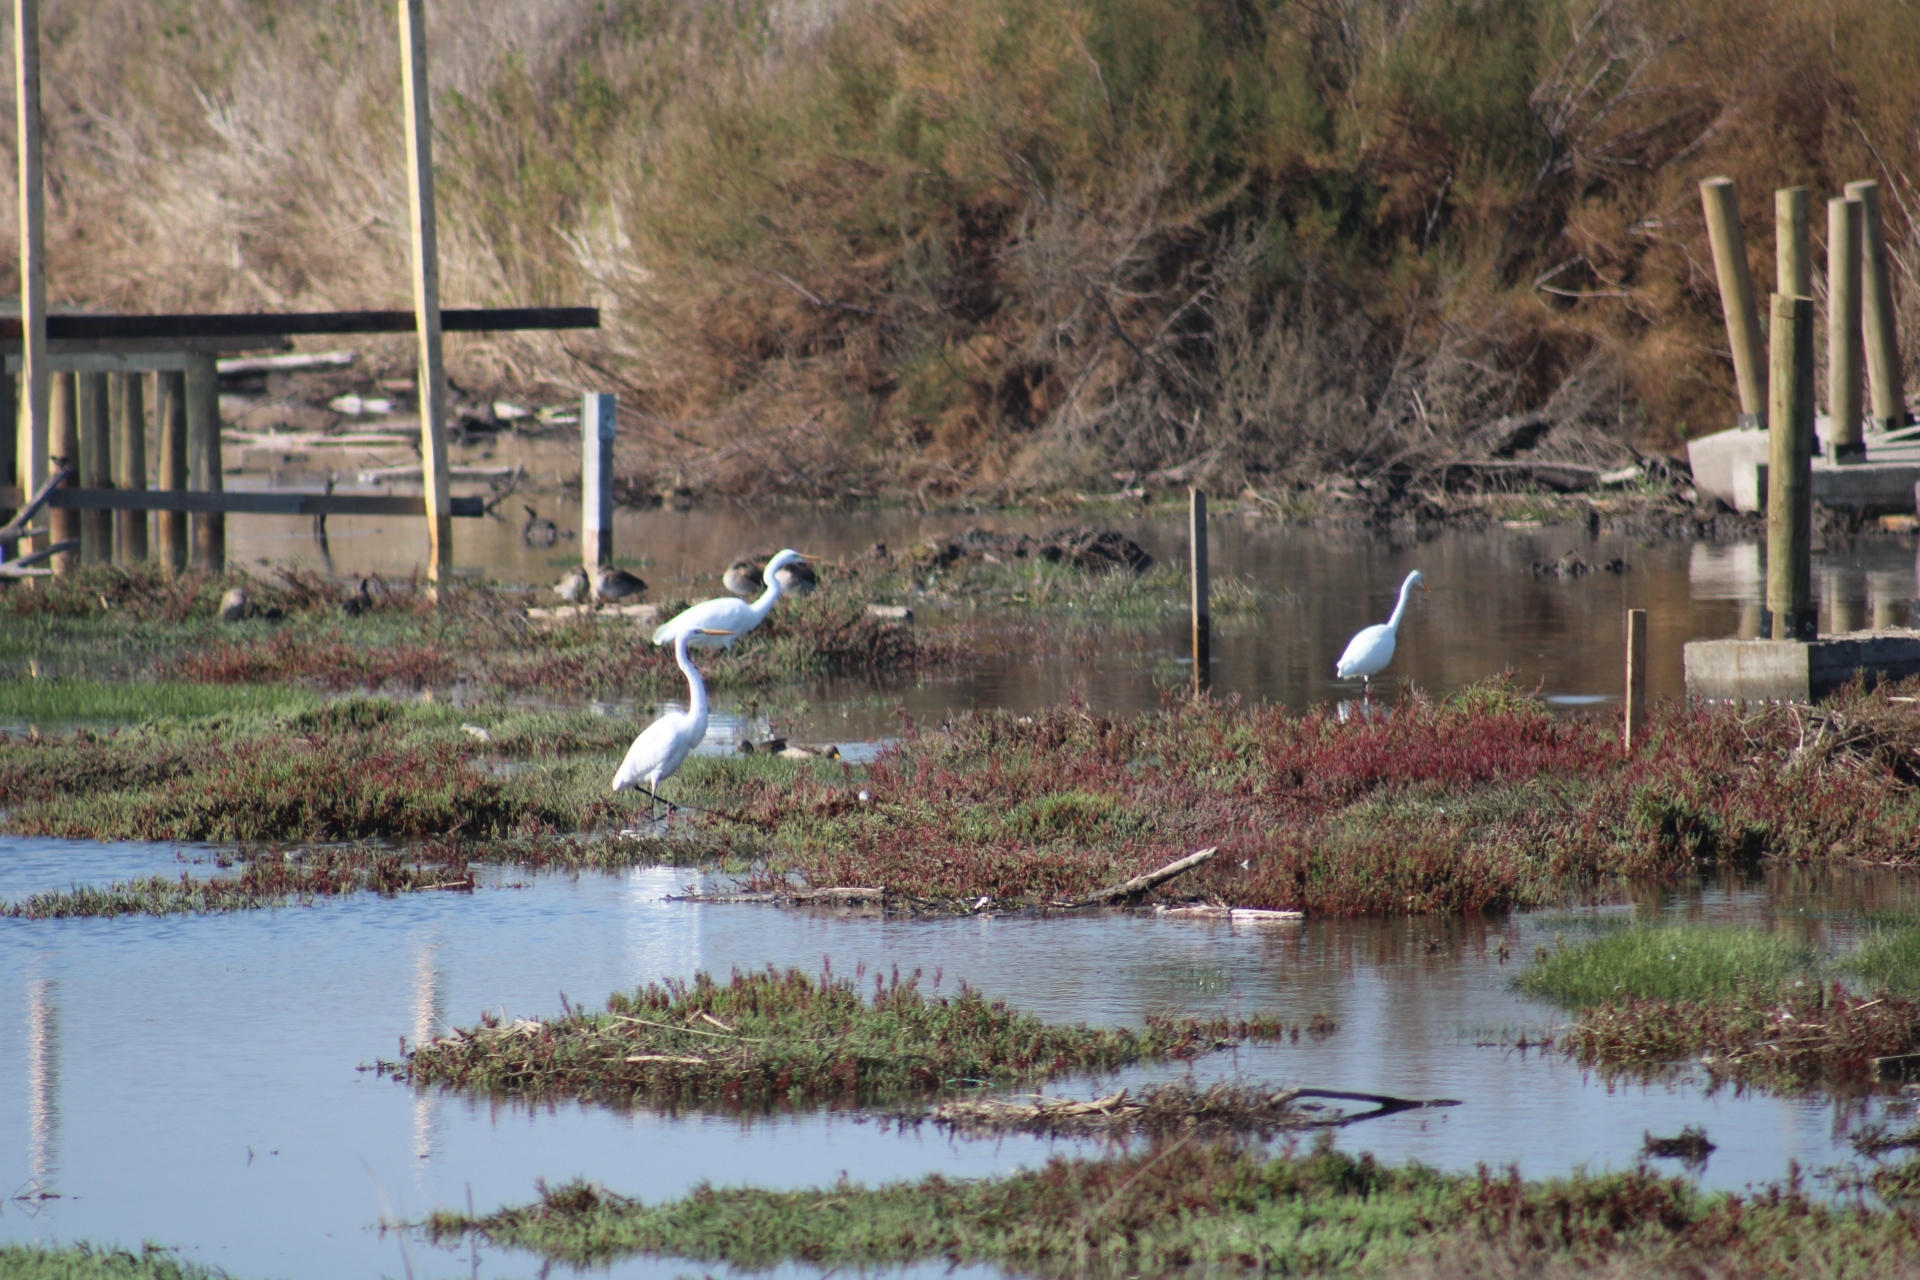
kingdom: Animalia
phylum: Chordata
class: Aves
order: Pelecaniformes
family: Ardeidae
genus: Ardea
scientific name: Ardea alba
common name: Great egret
